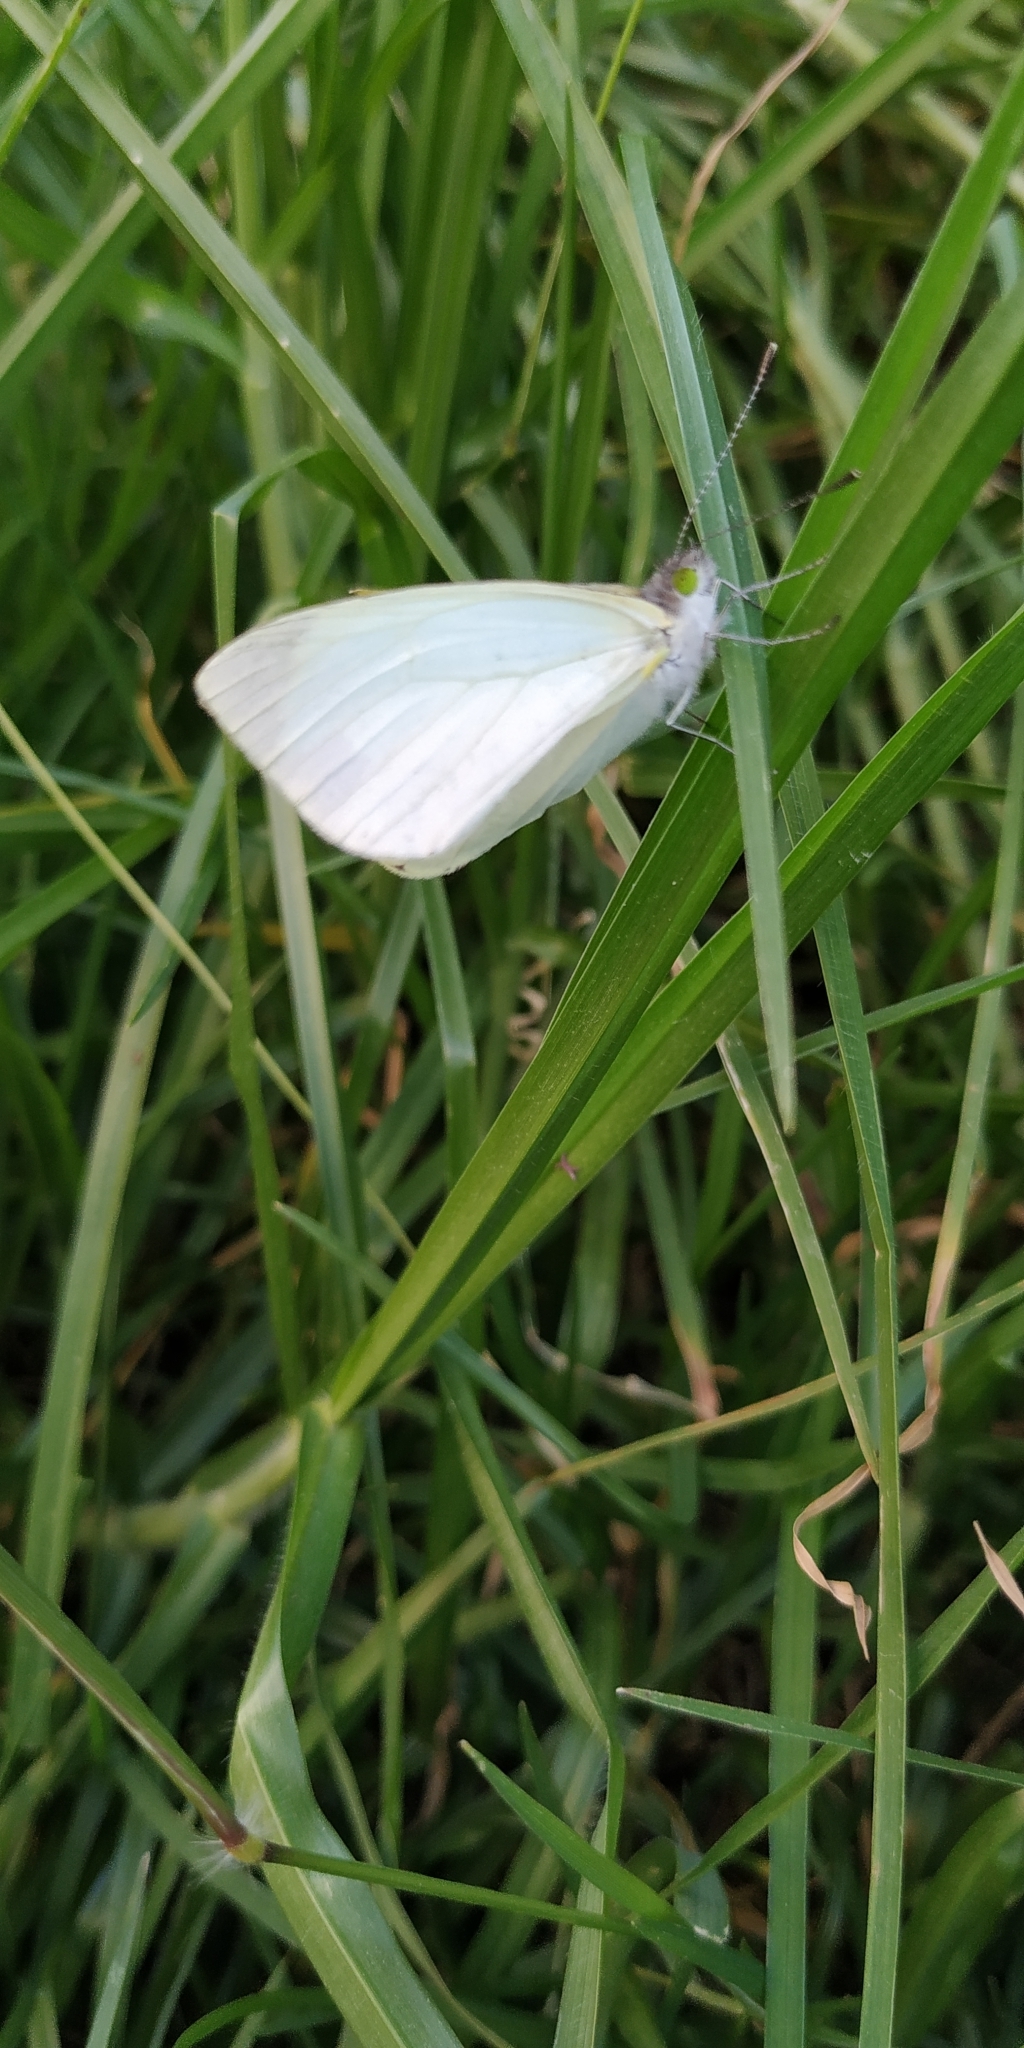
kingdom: Animalia
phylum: Arthropoda
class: Insecta
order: Lepidoptera
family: Pieridae
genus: Leptophobia
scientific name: Leptophobia aripa
